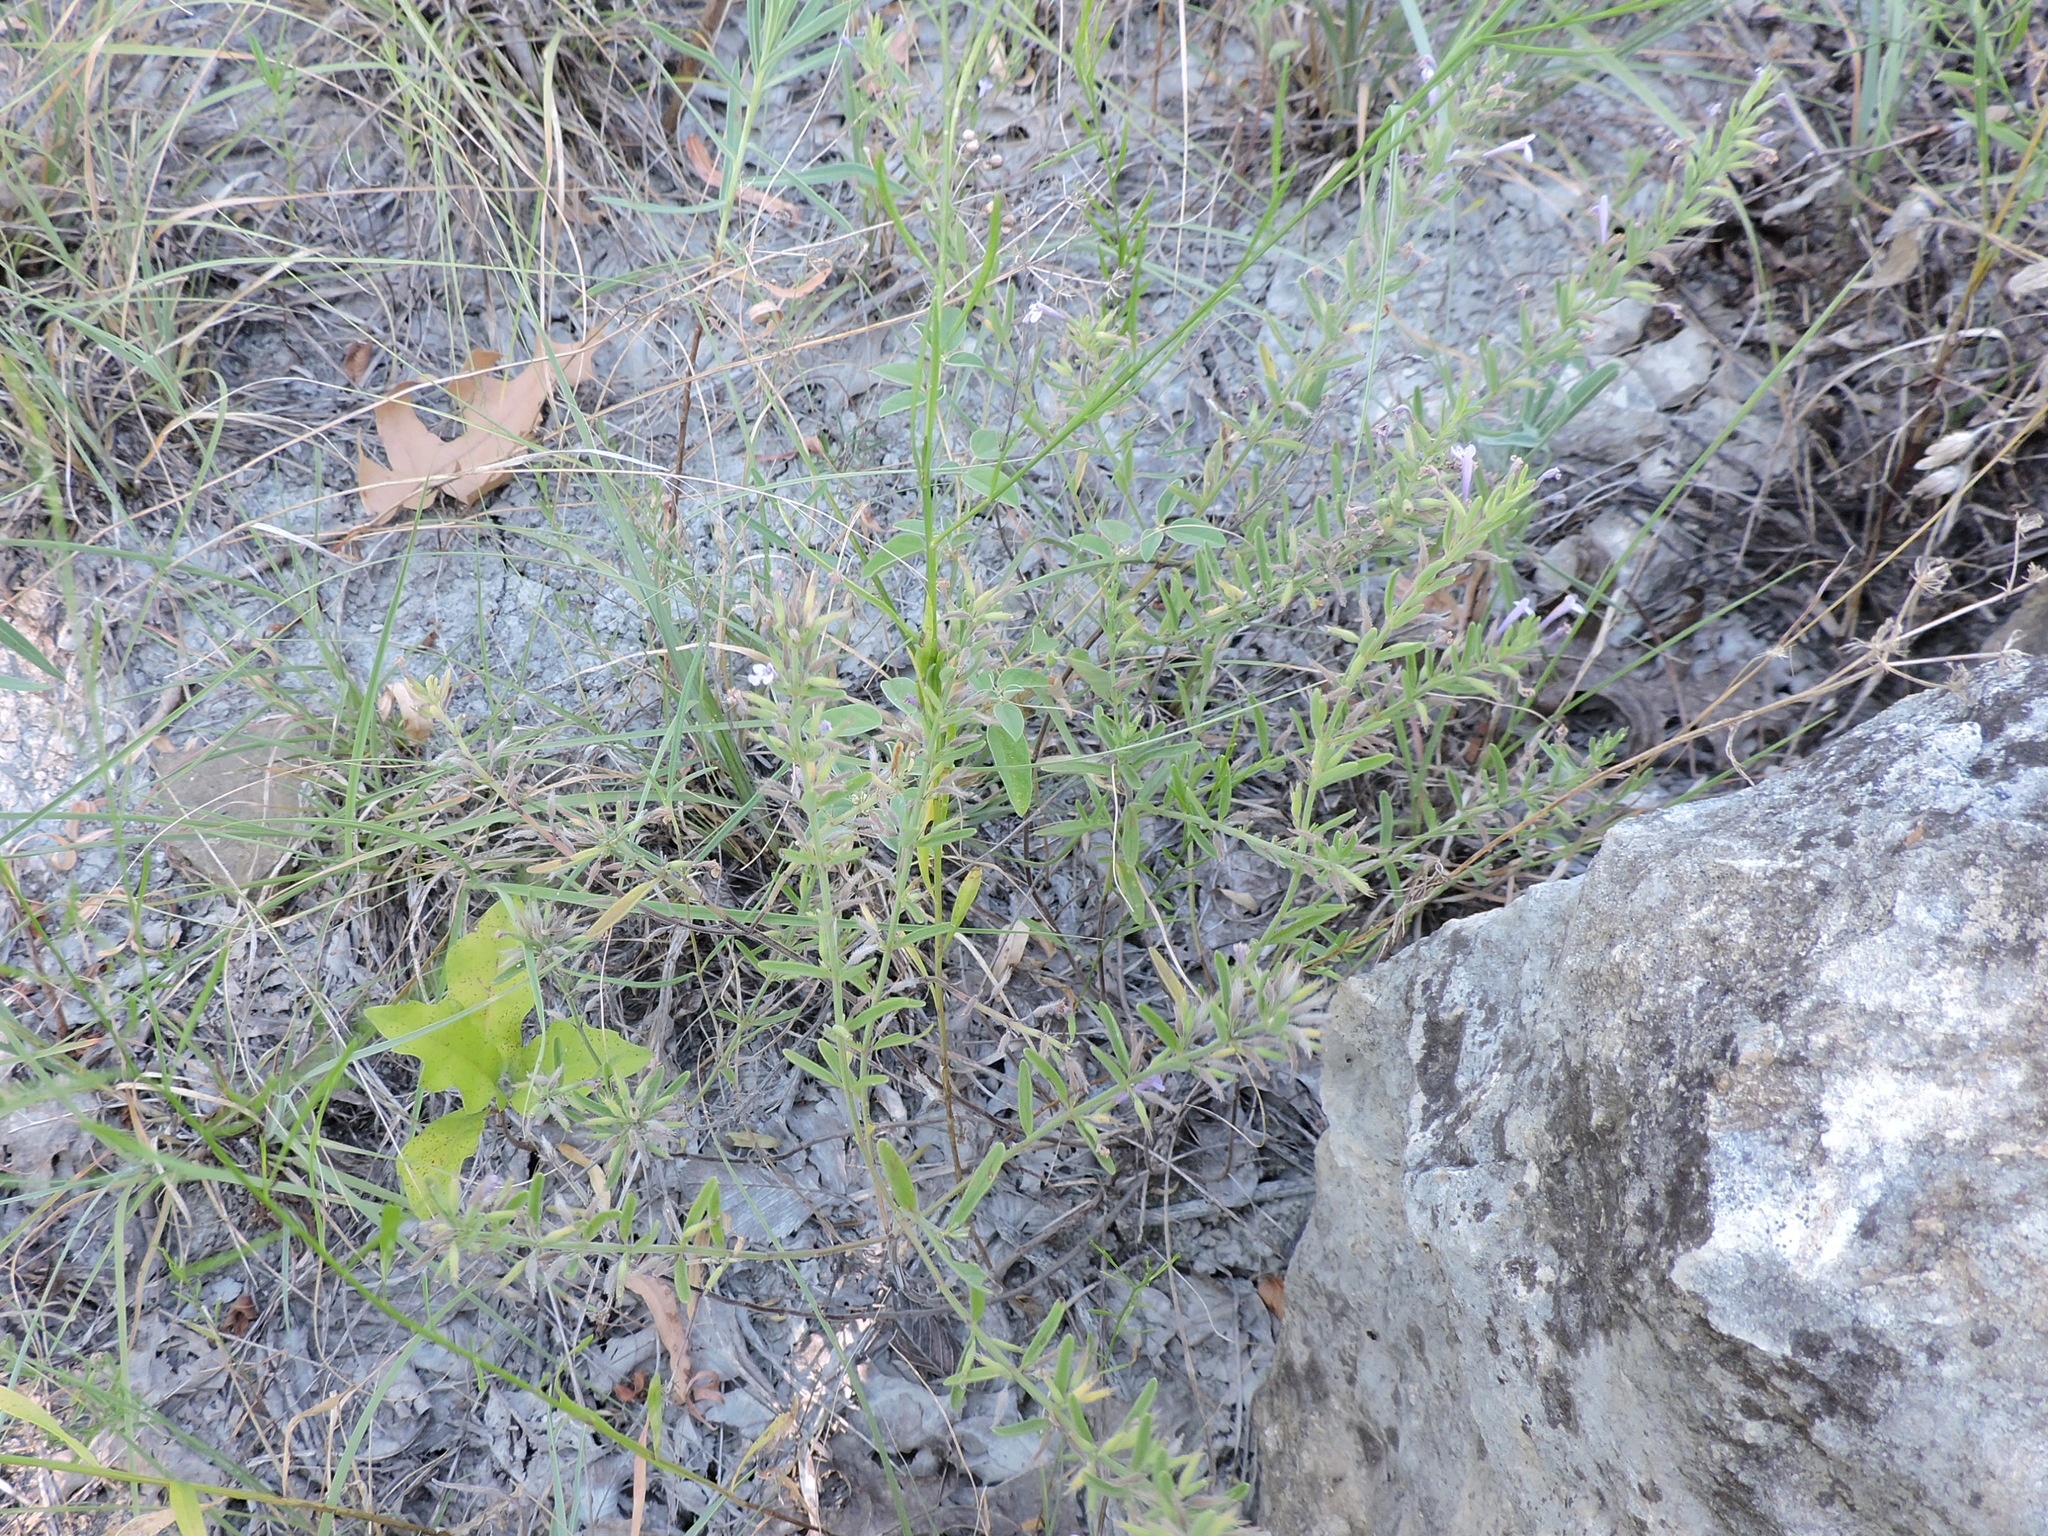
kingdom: Plantae
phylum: Tracheophyta
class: Magnoliopsida
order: Lamiales
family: Lamiaceae
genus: Hedeoma
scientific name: Hedeoma drummondii
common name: New mexico pennyroyal
